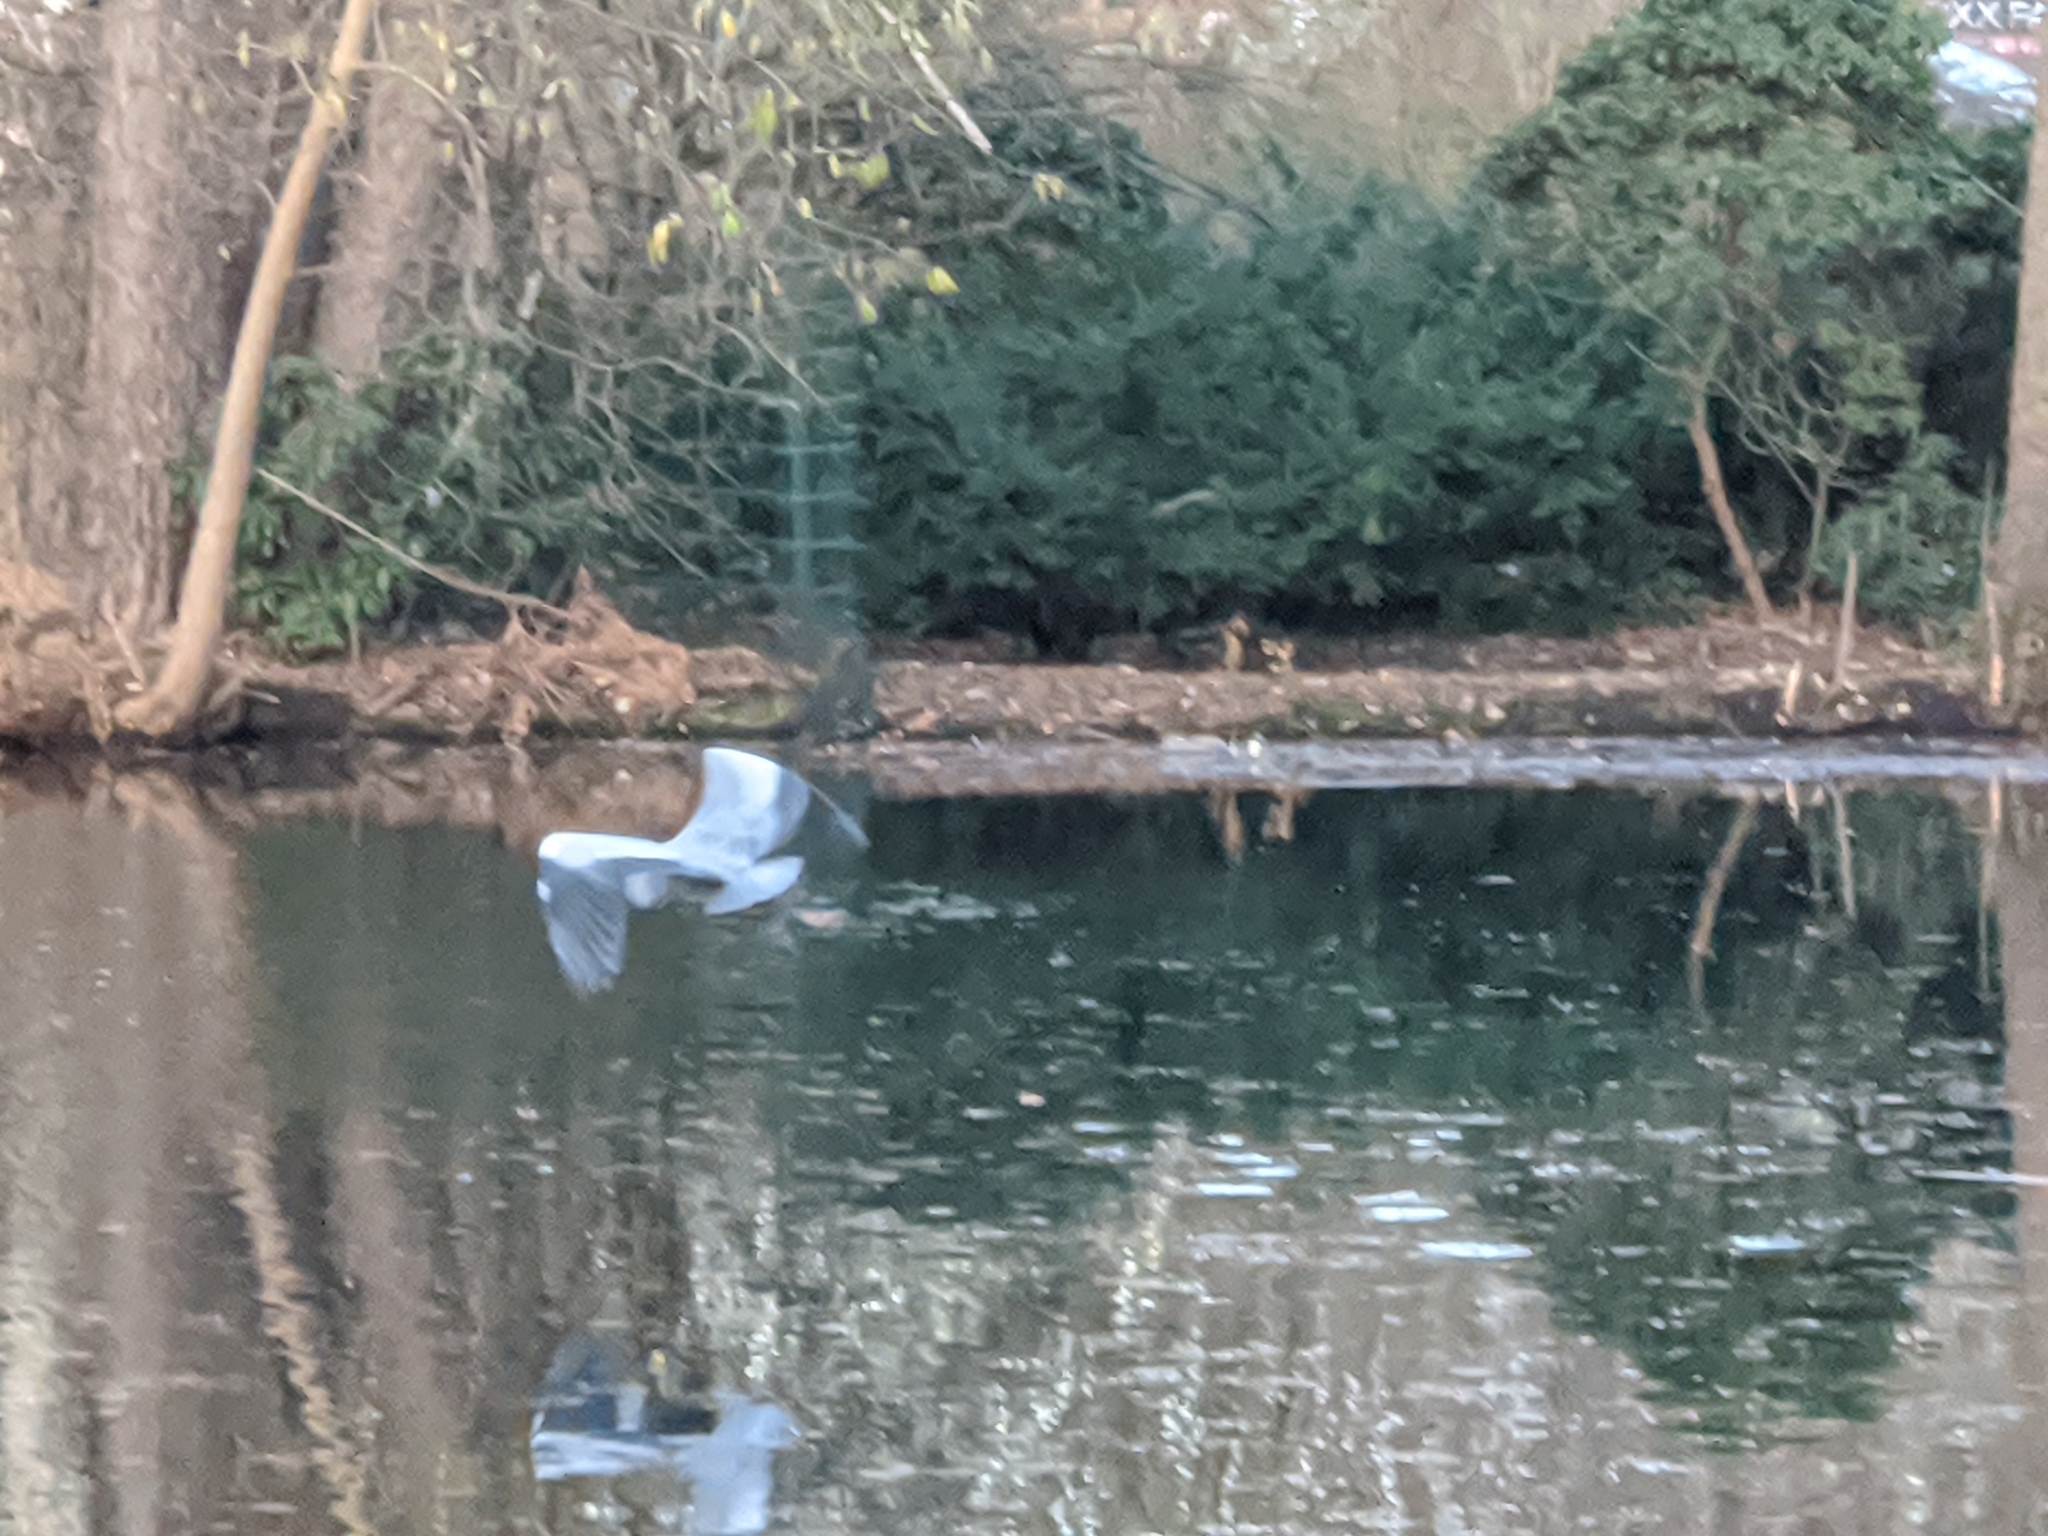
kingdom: Animalia
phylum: Chordata
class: Aves
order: Pelecaniformes
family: Ardeidae
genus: Ardea
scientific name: Ardea cinerea
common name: Grey heron
